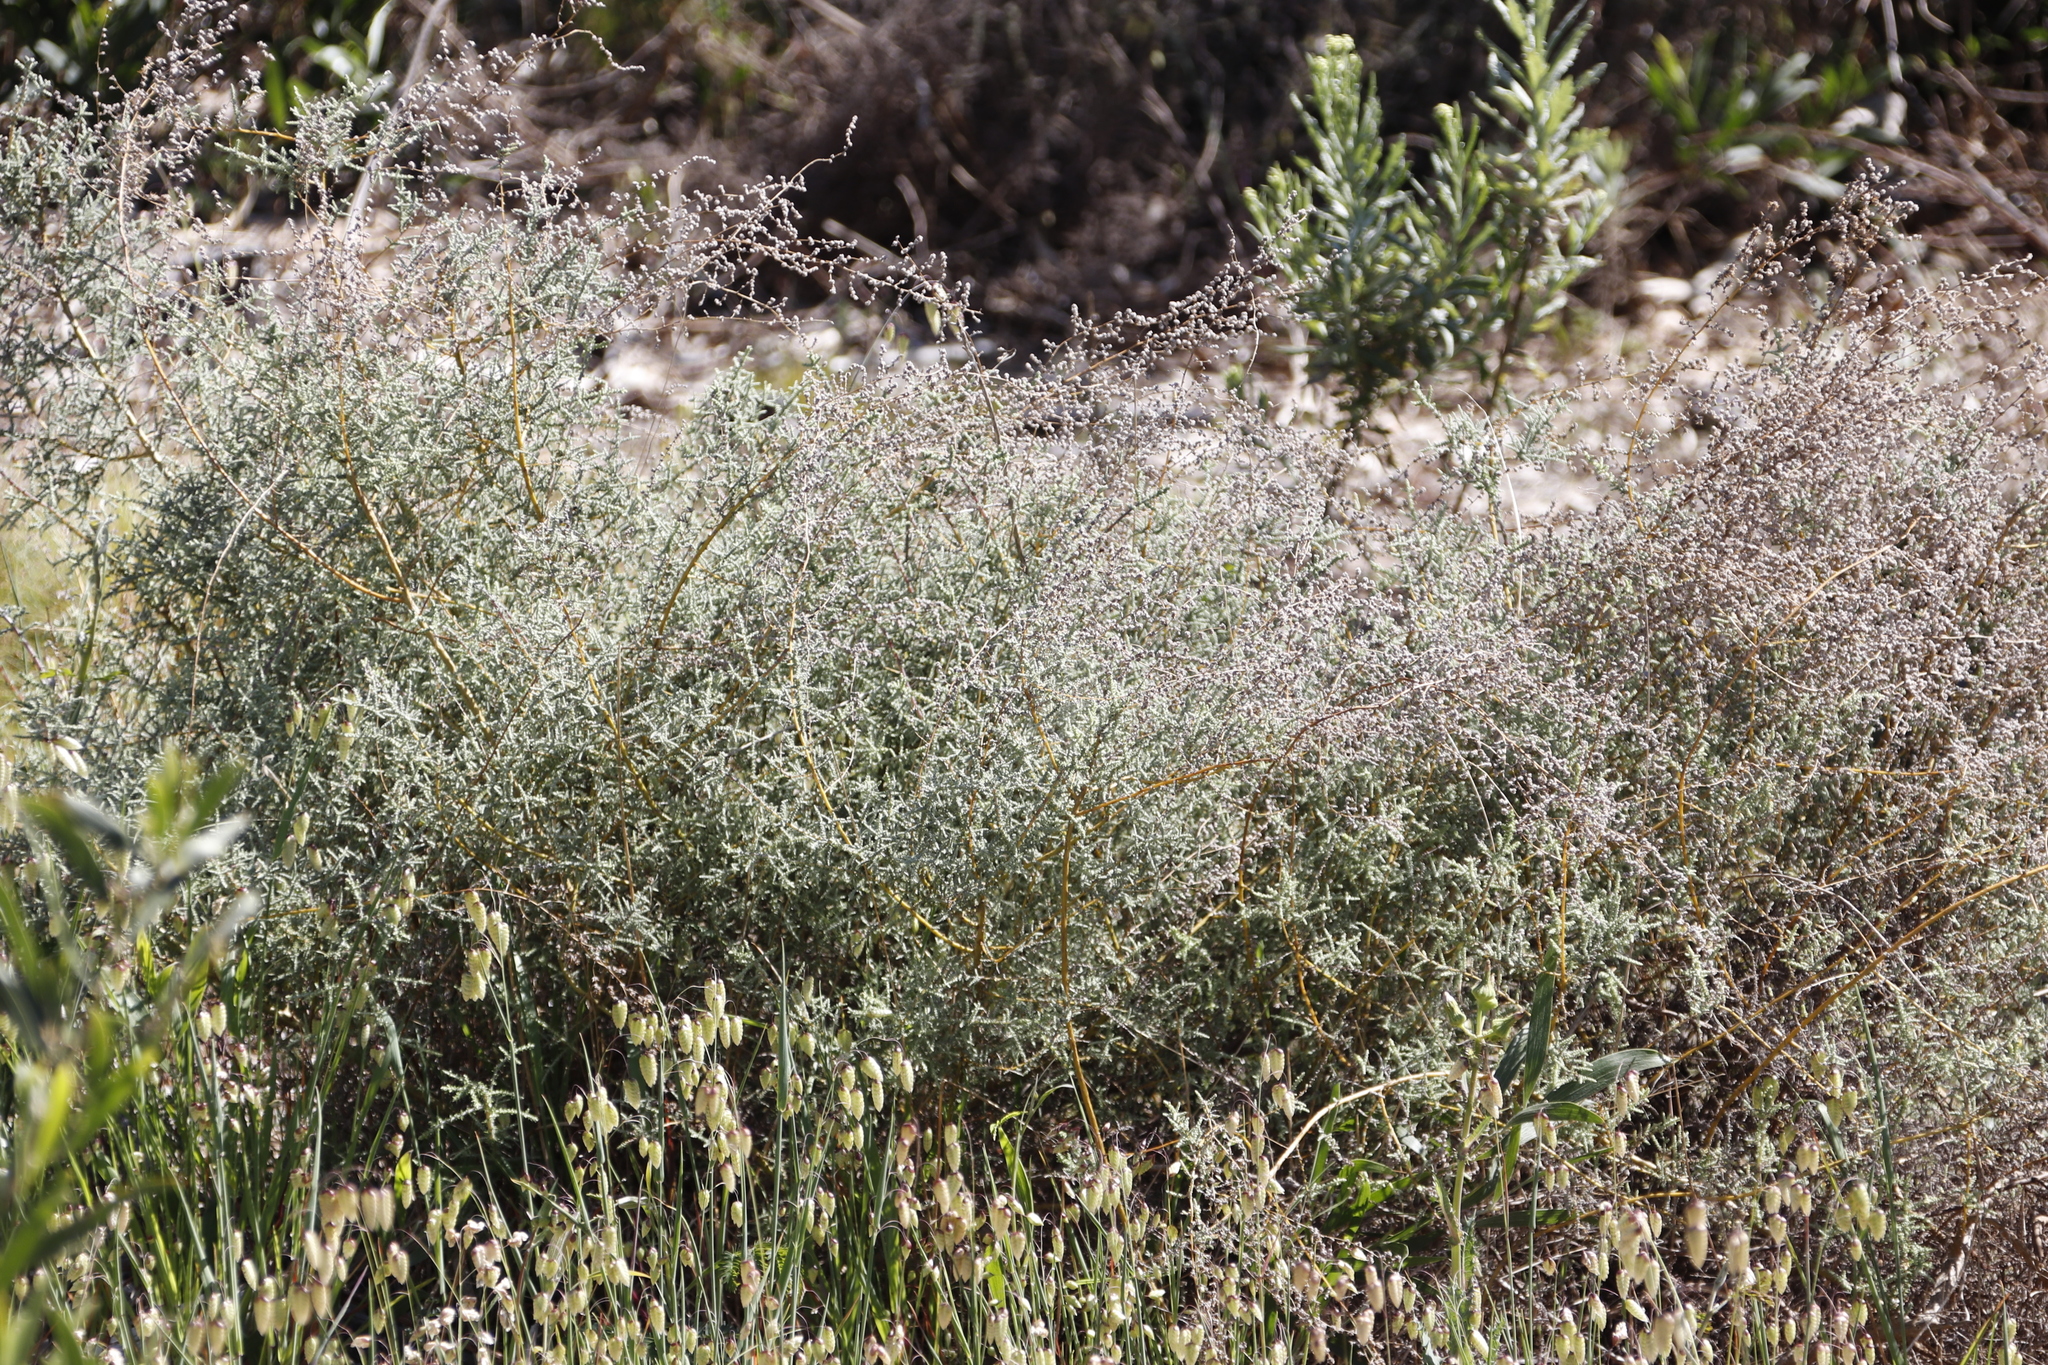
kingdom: Plantae
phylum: Tracheophyta
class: Magnoliopsida
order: Asterales
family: Asteraceae
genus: Seriphium
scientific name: Seriphium plumosum
